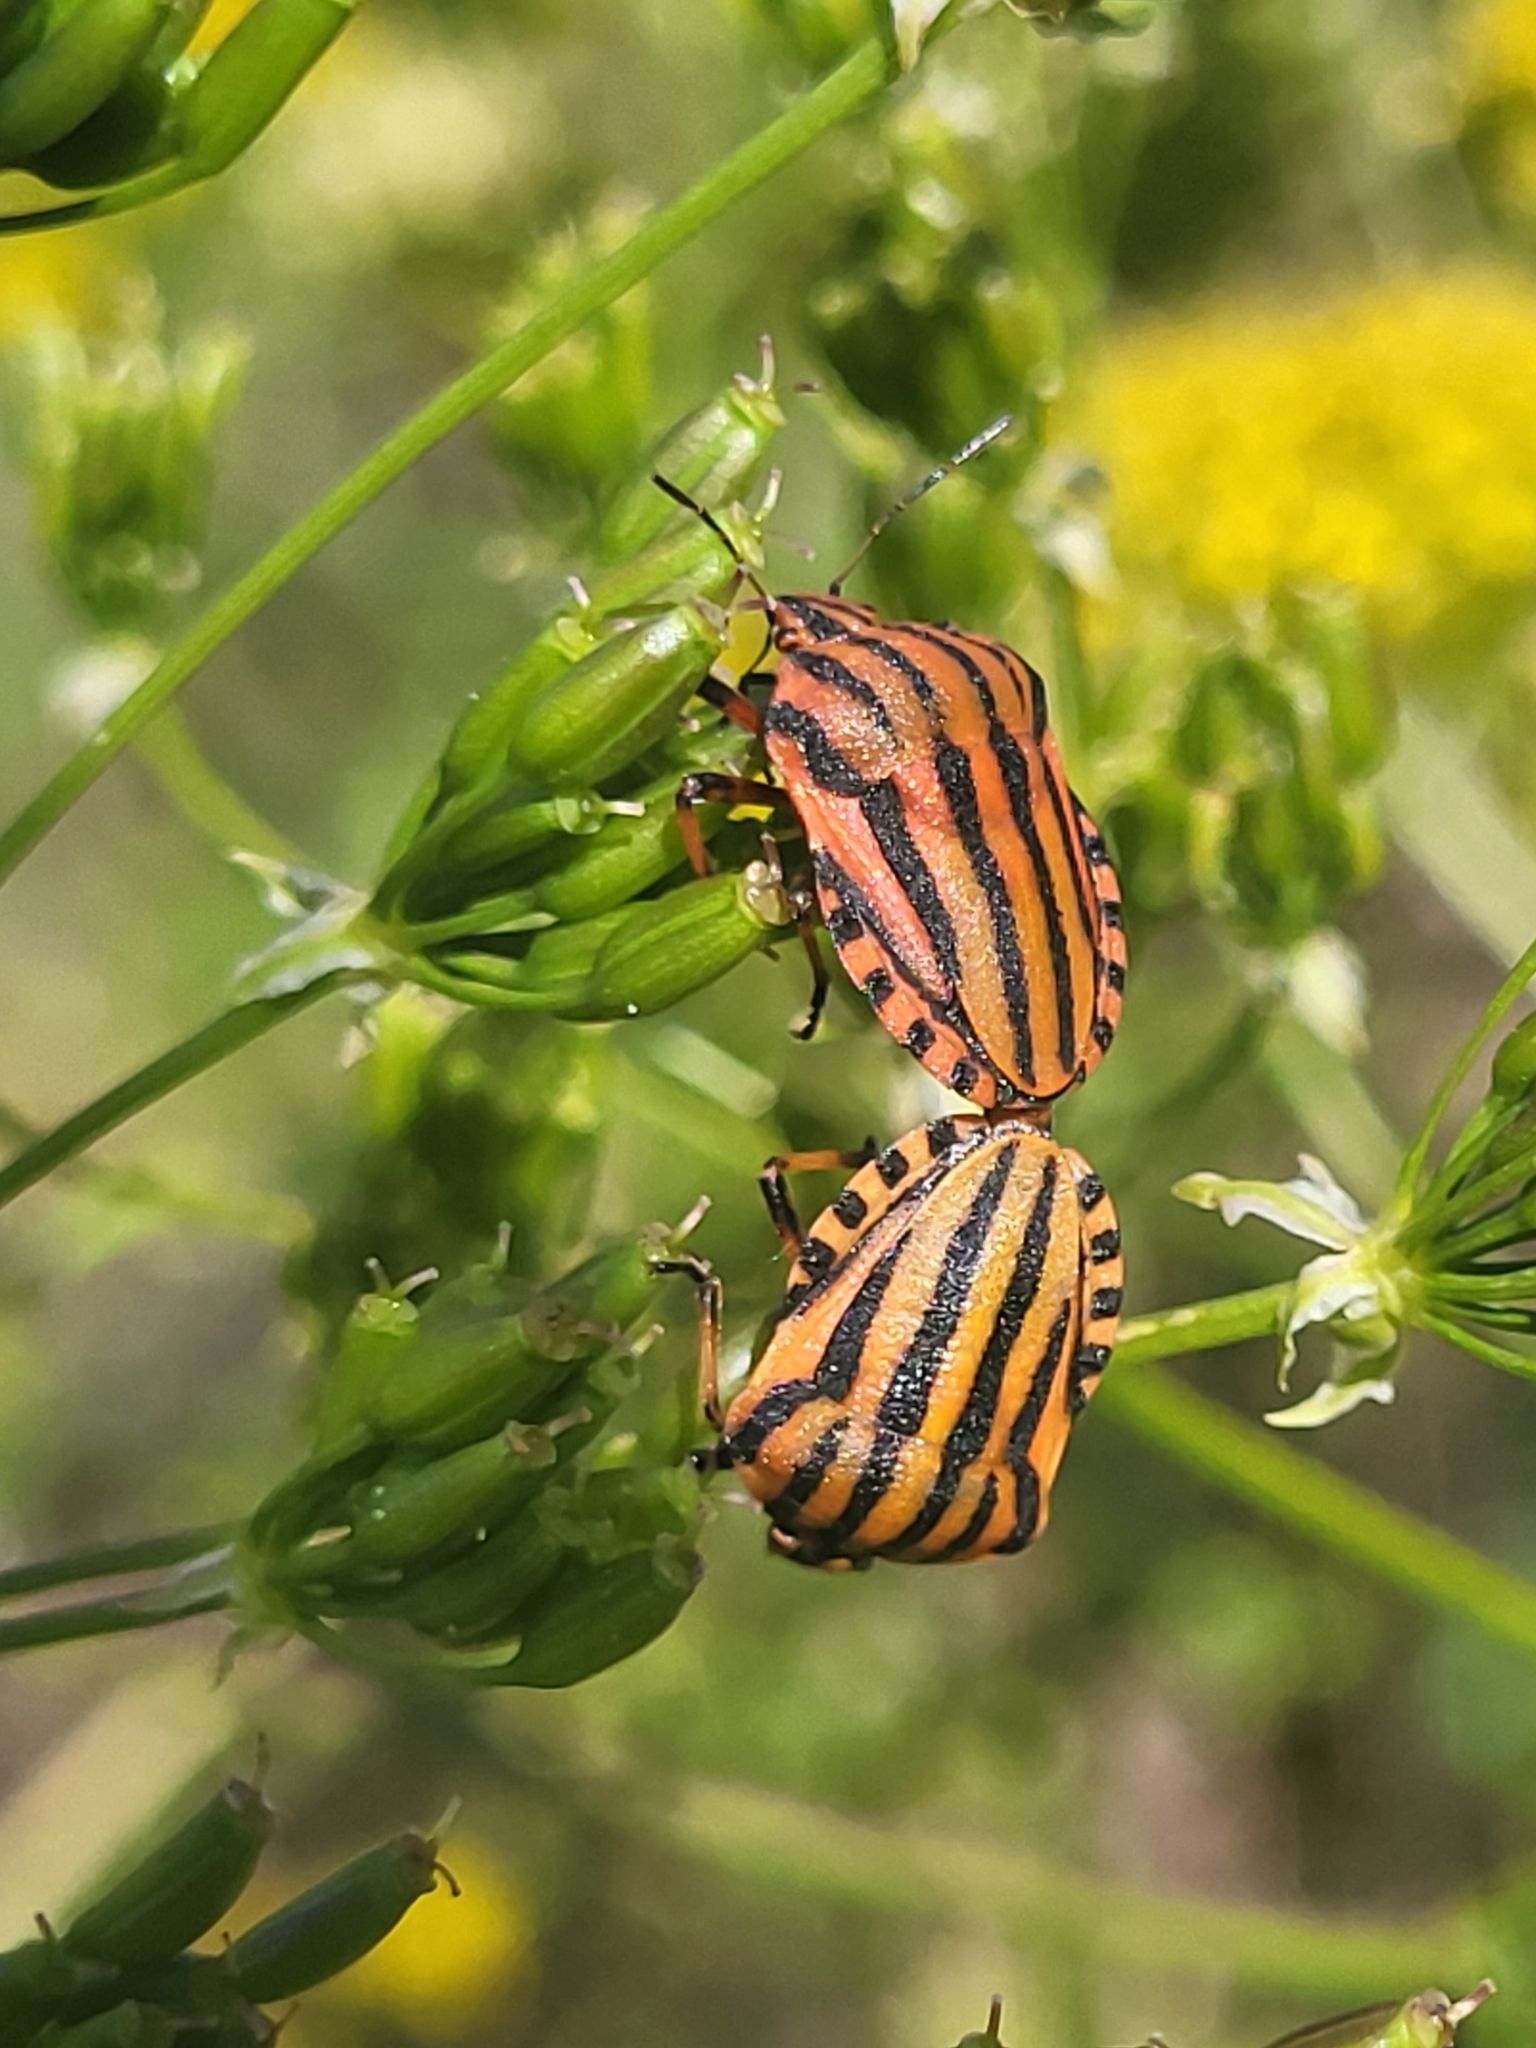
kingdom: Animalia
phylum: Arthropoda
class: Insecta
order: Hemiptera
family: Pentatomidae
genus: Graphosoma
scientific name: Graphosoma italicum
